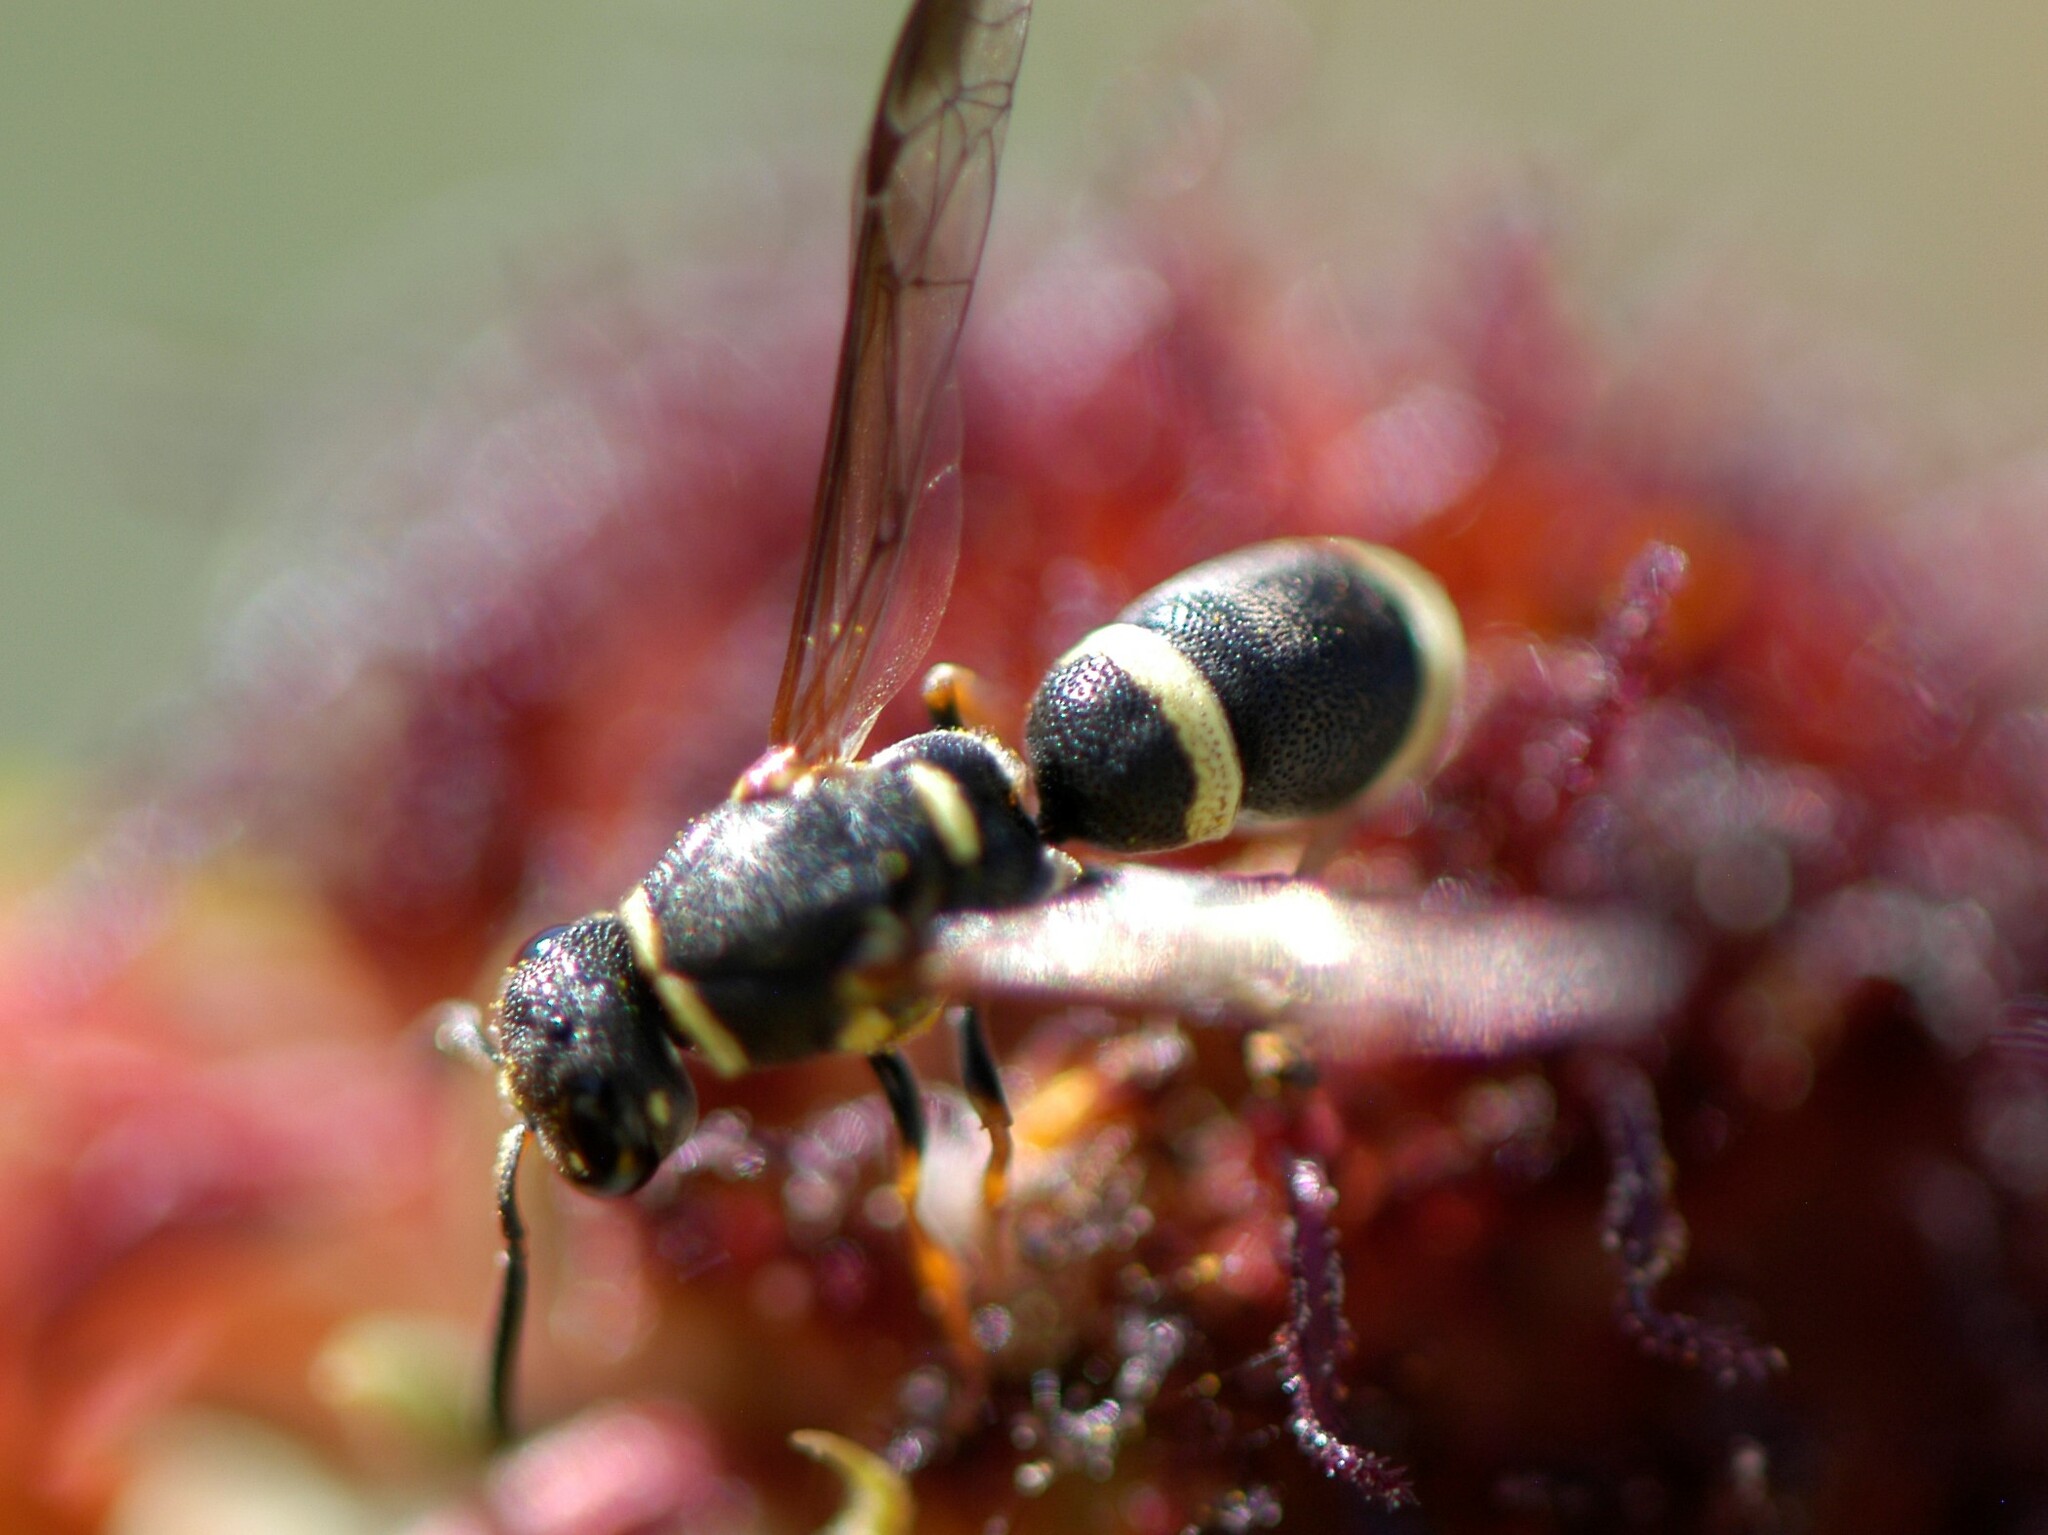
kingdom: Animalia
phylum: Arthropoda
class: Insecta
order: Hymenoptera
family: Eumenidae
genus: Parancistrocerus
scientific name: Parancistrocerus rectangulis
